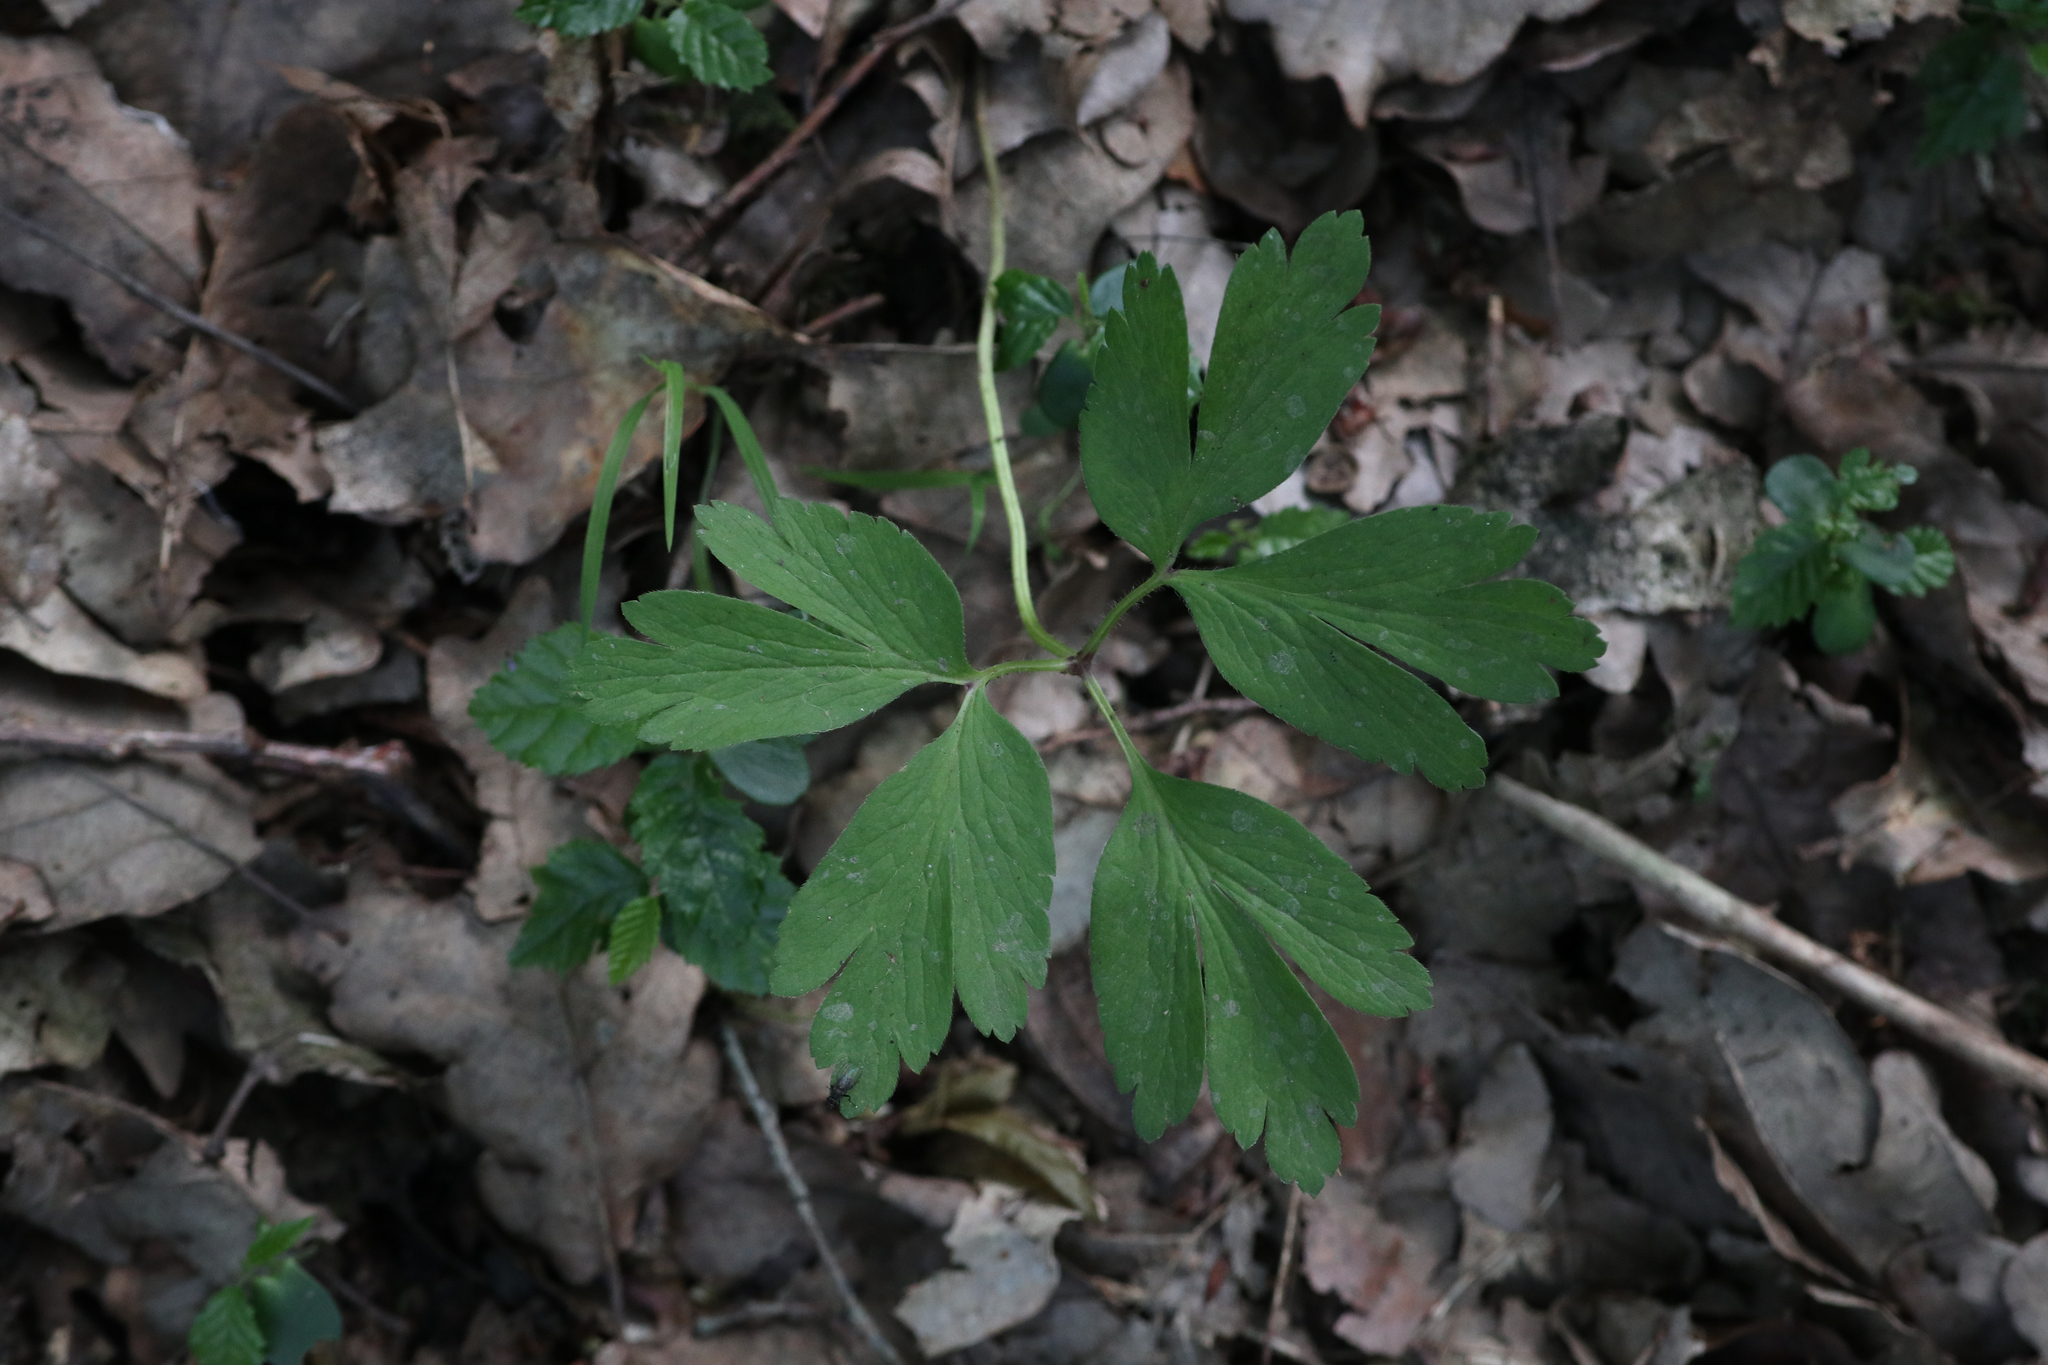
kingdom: Plantae
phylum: Tracheophyta
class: Magnoliopsida
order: Ranunculales
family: Ranunculaceae
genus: Anemone
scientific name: Anemone nemorosa
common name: Wood anemone
